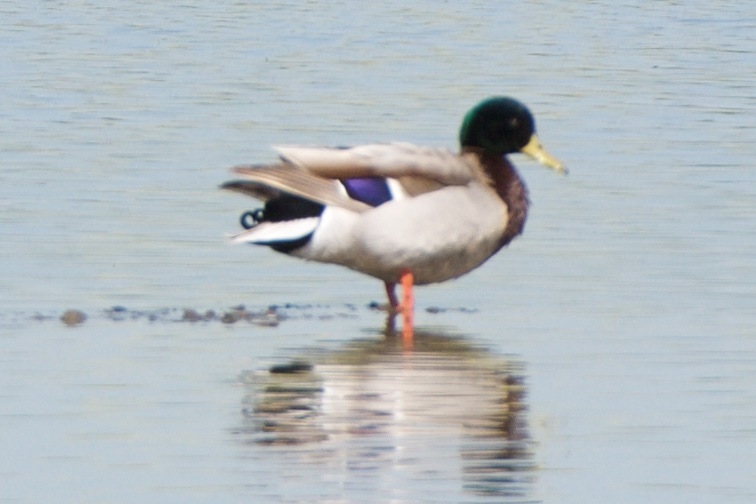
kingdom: Animalia
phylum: Chordata
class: Aves
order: Anseriformes
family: Anatidae
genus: Anas
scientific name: Anas platyrhynchos
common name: Mallard
